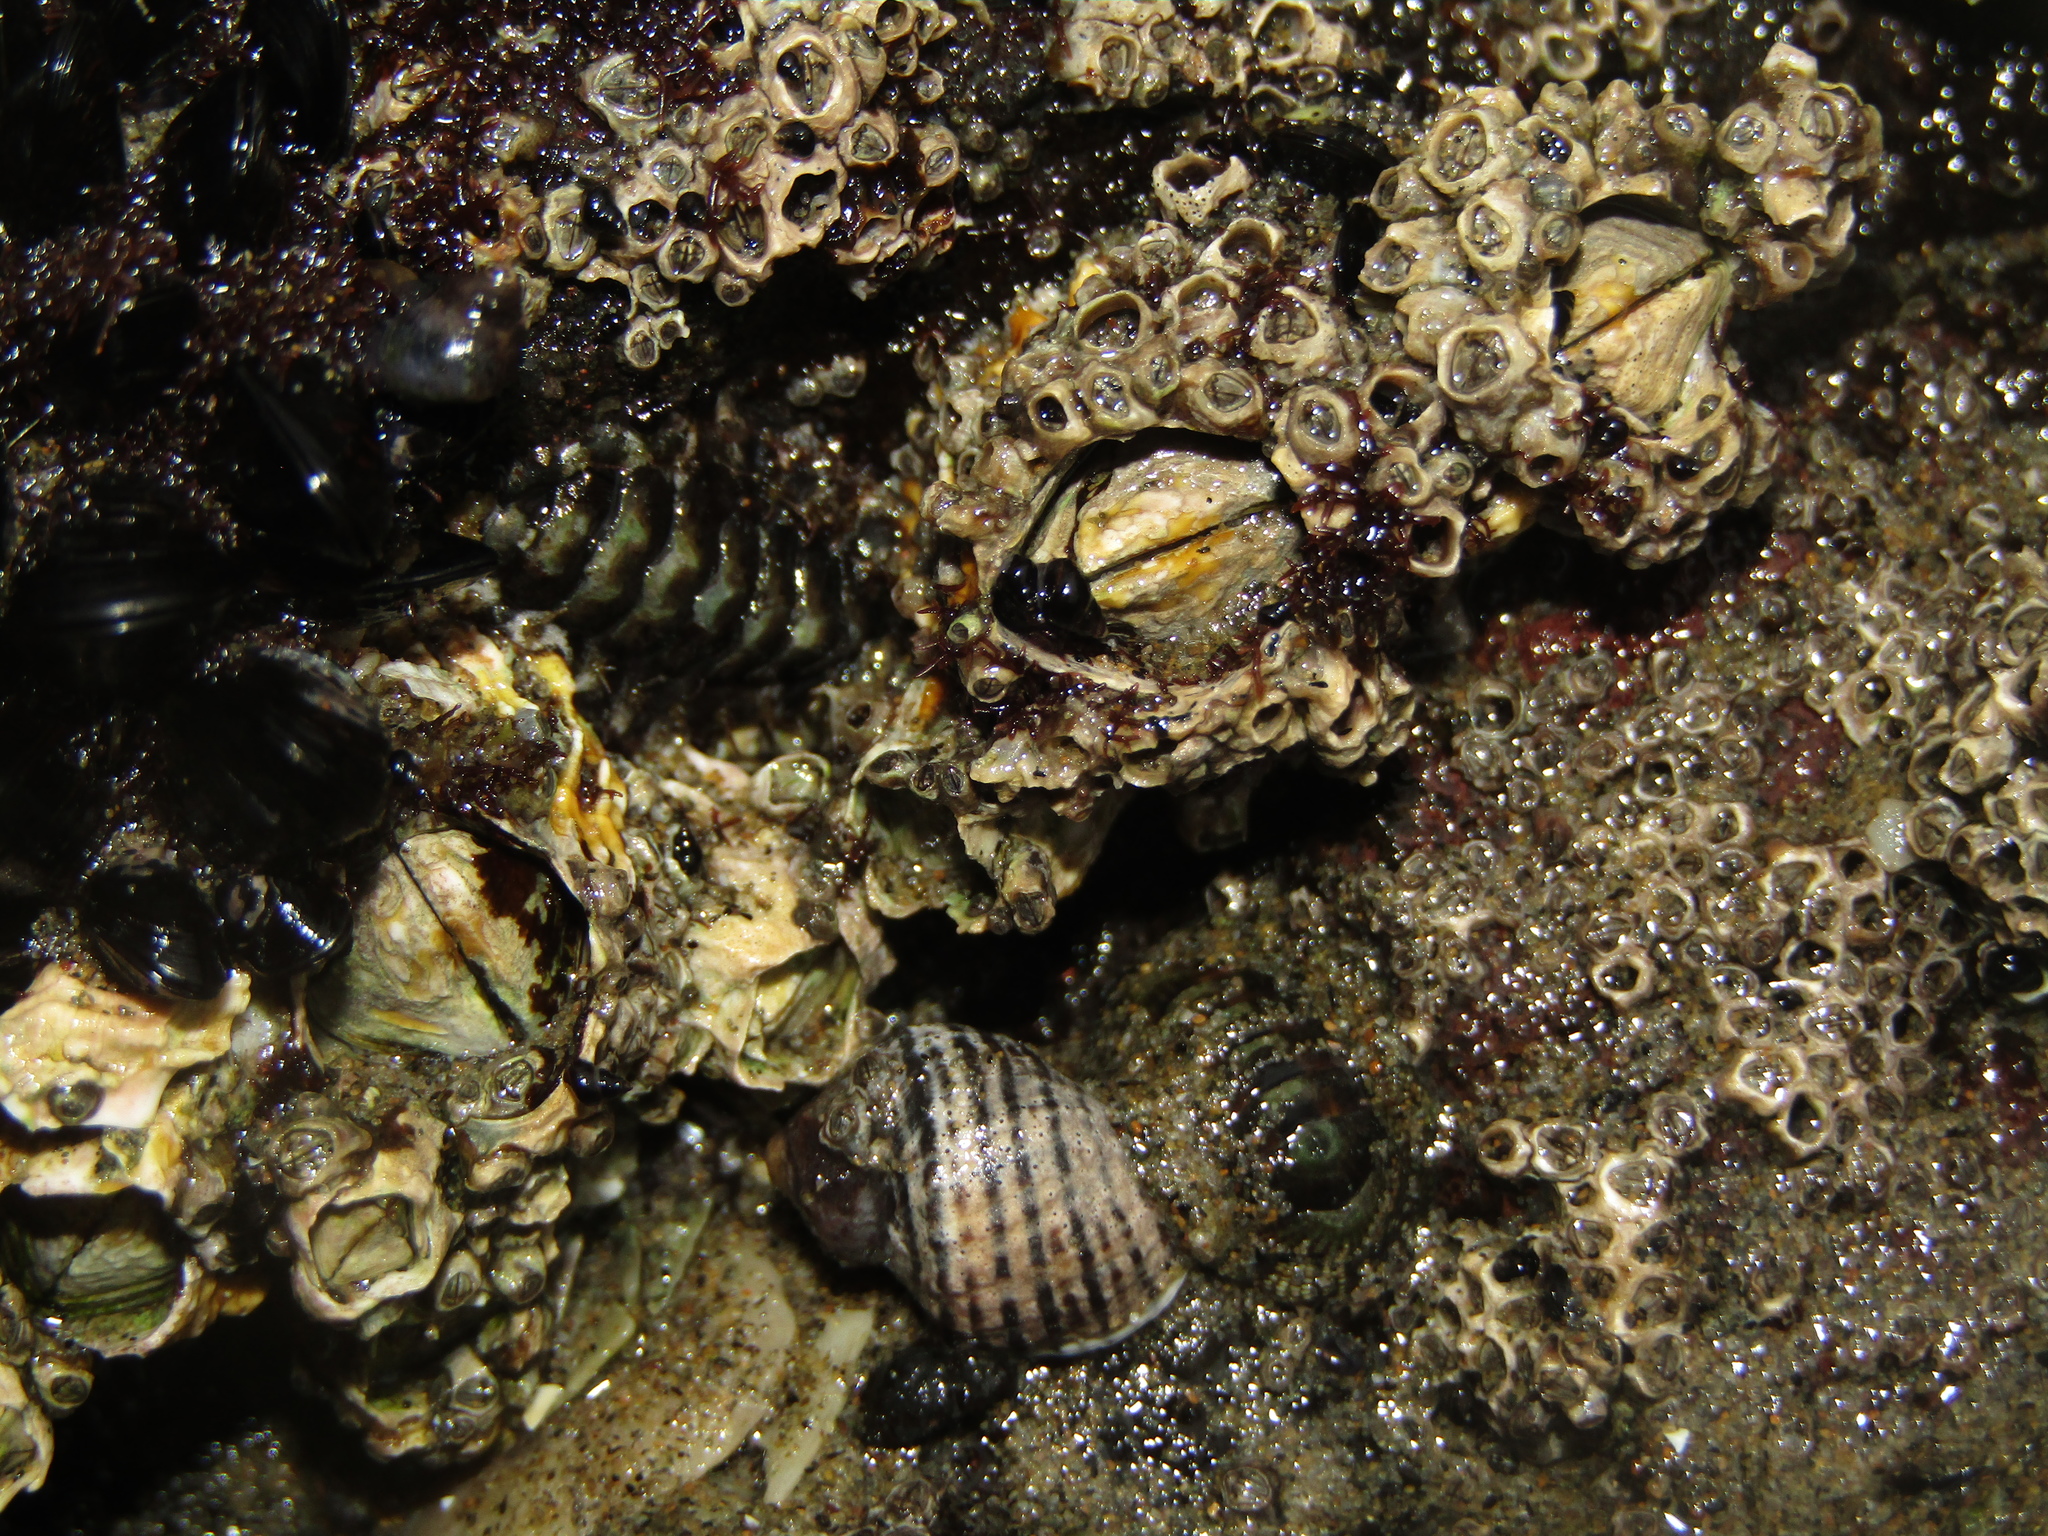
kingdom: Animalia
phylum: Mollusca
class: Polyplacophora
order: Chitonida
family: Mopaliidae
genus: Plaxiphora
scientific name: Plaxiphora caelata
